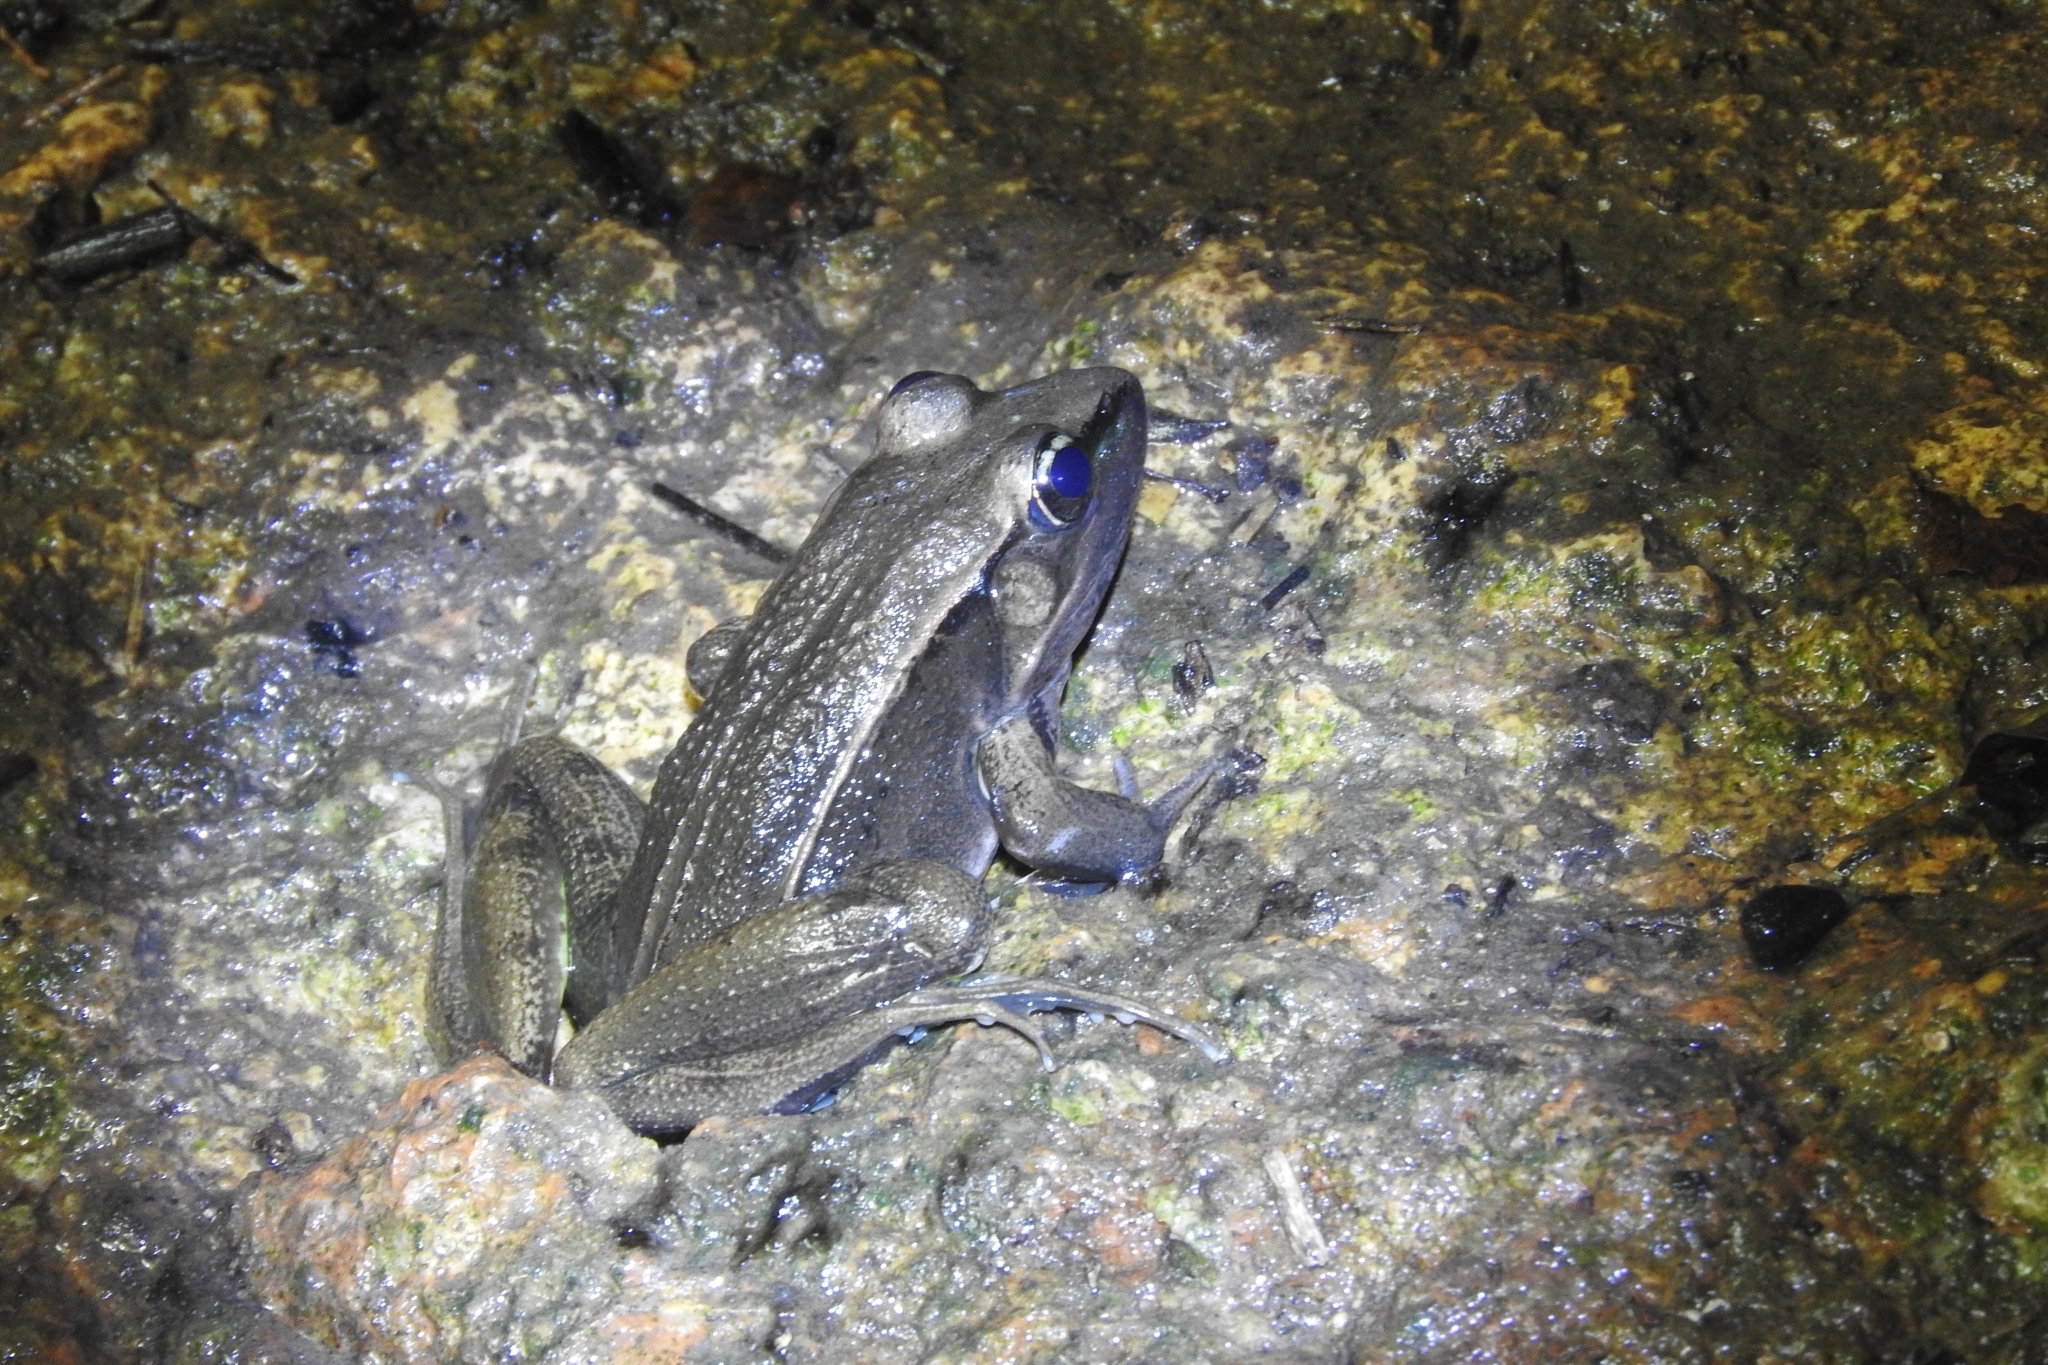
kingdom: Animalia
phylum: Chordata
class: Amphibia
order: Anura
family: Ranidae
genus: Lithobates
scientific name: Lithobates brownorum
